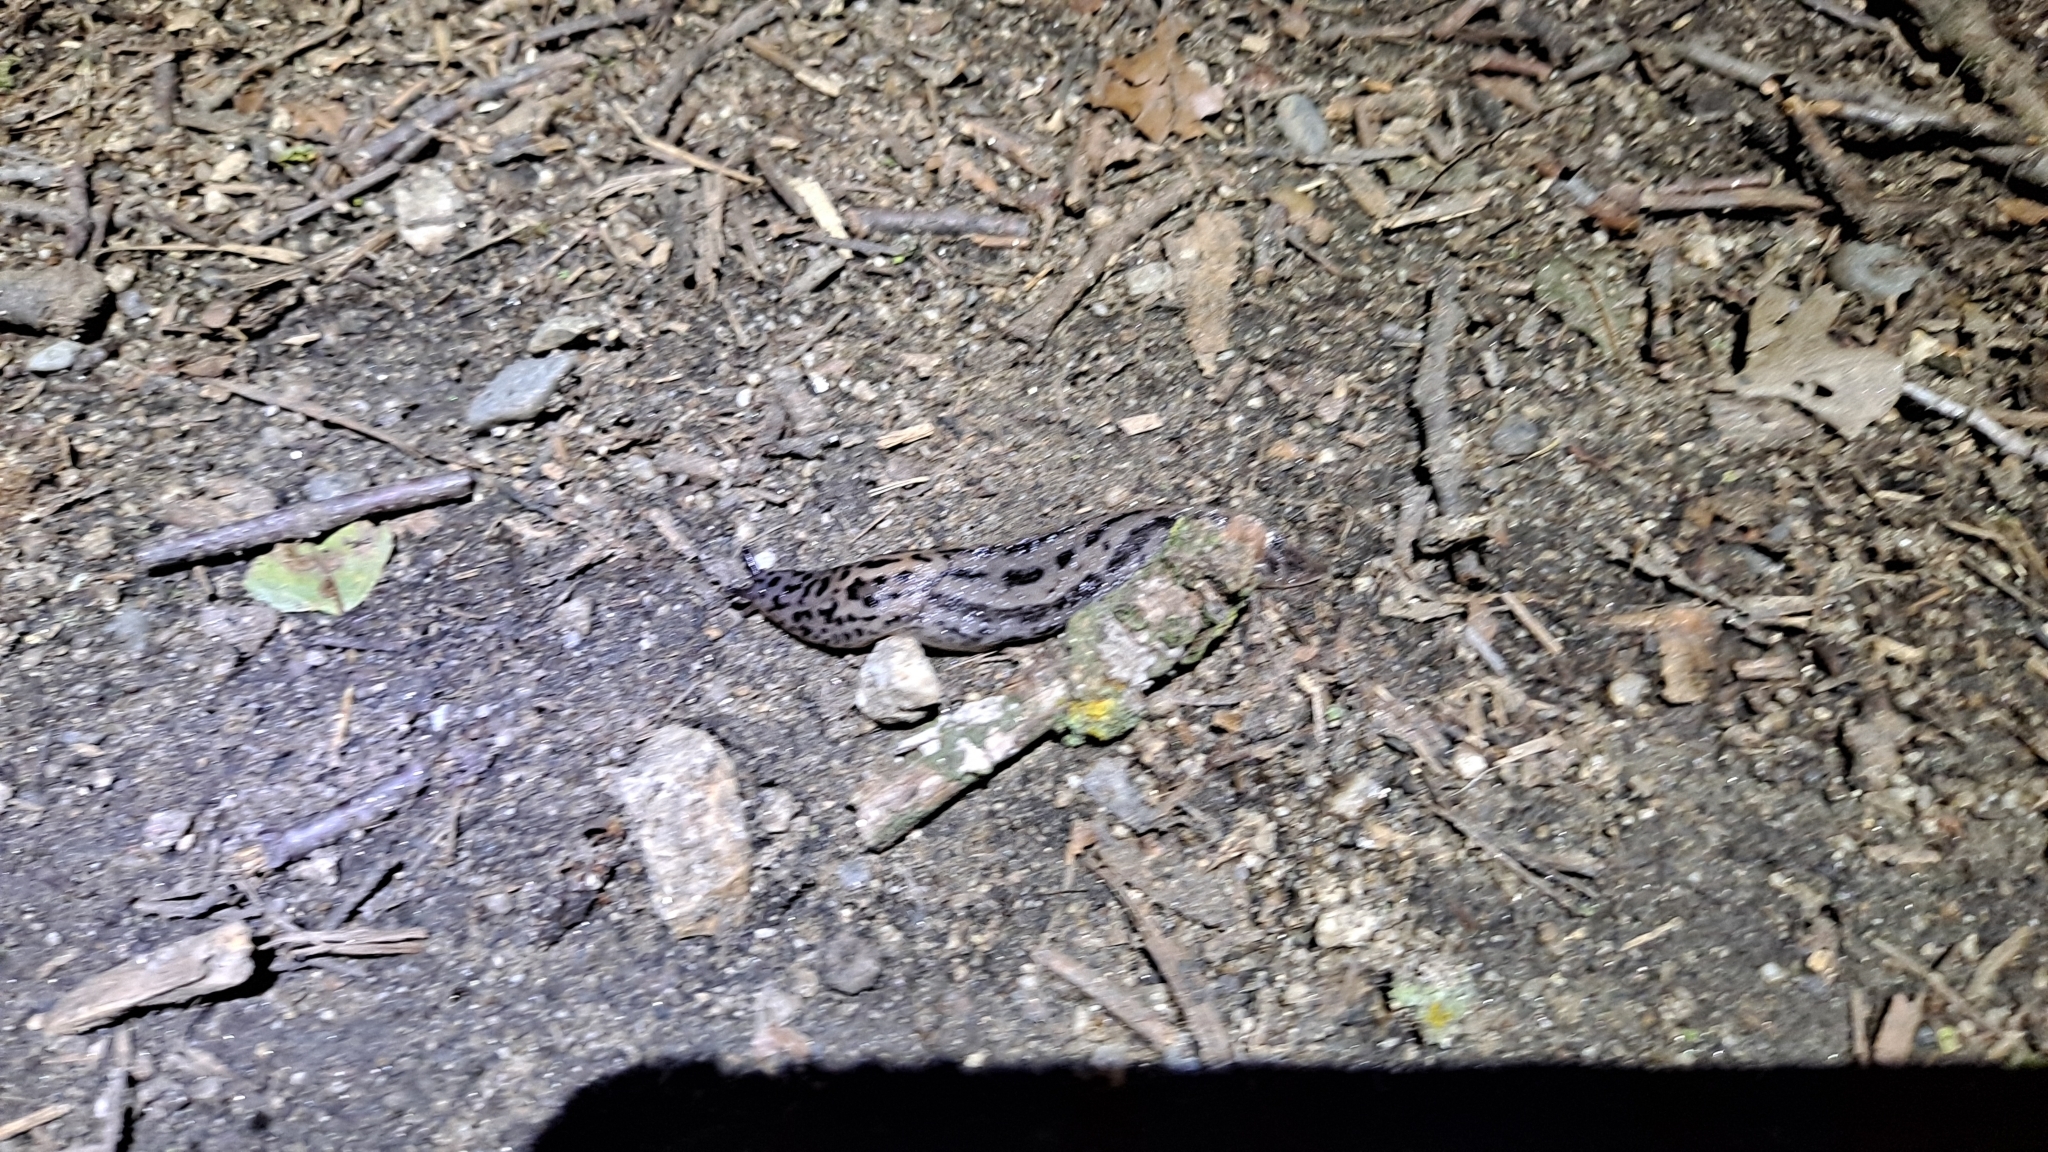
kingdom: Animalia
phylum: Mollusca
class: Gastropoda
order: Stylommatophora
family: Limacidae
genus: Limax
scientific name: Limax maximus
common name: Great grey slug
